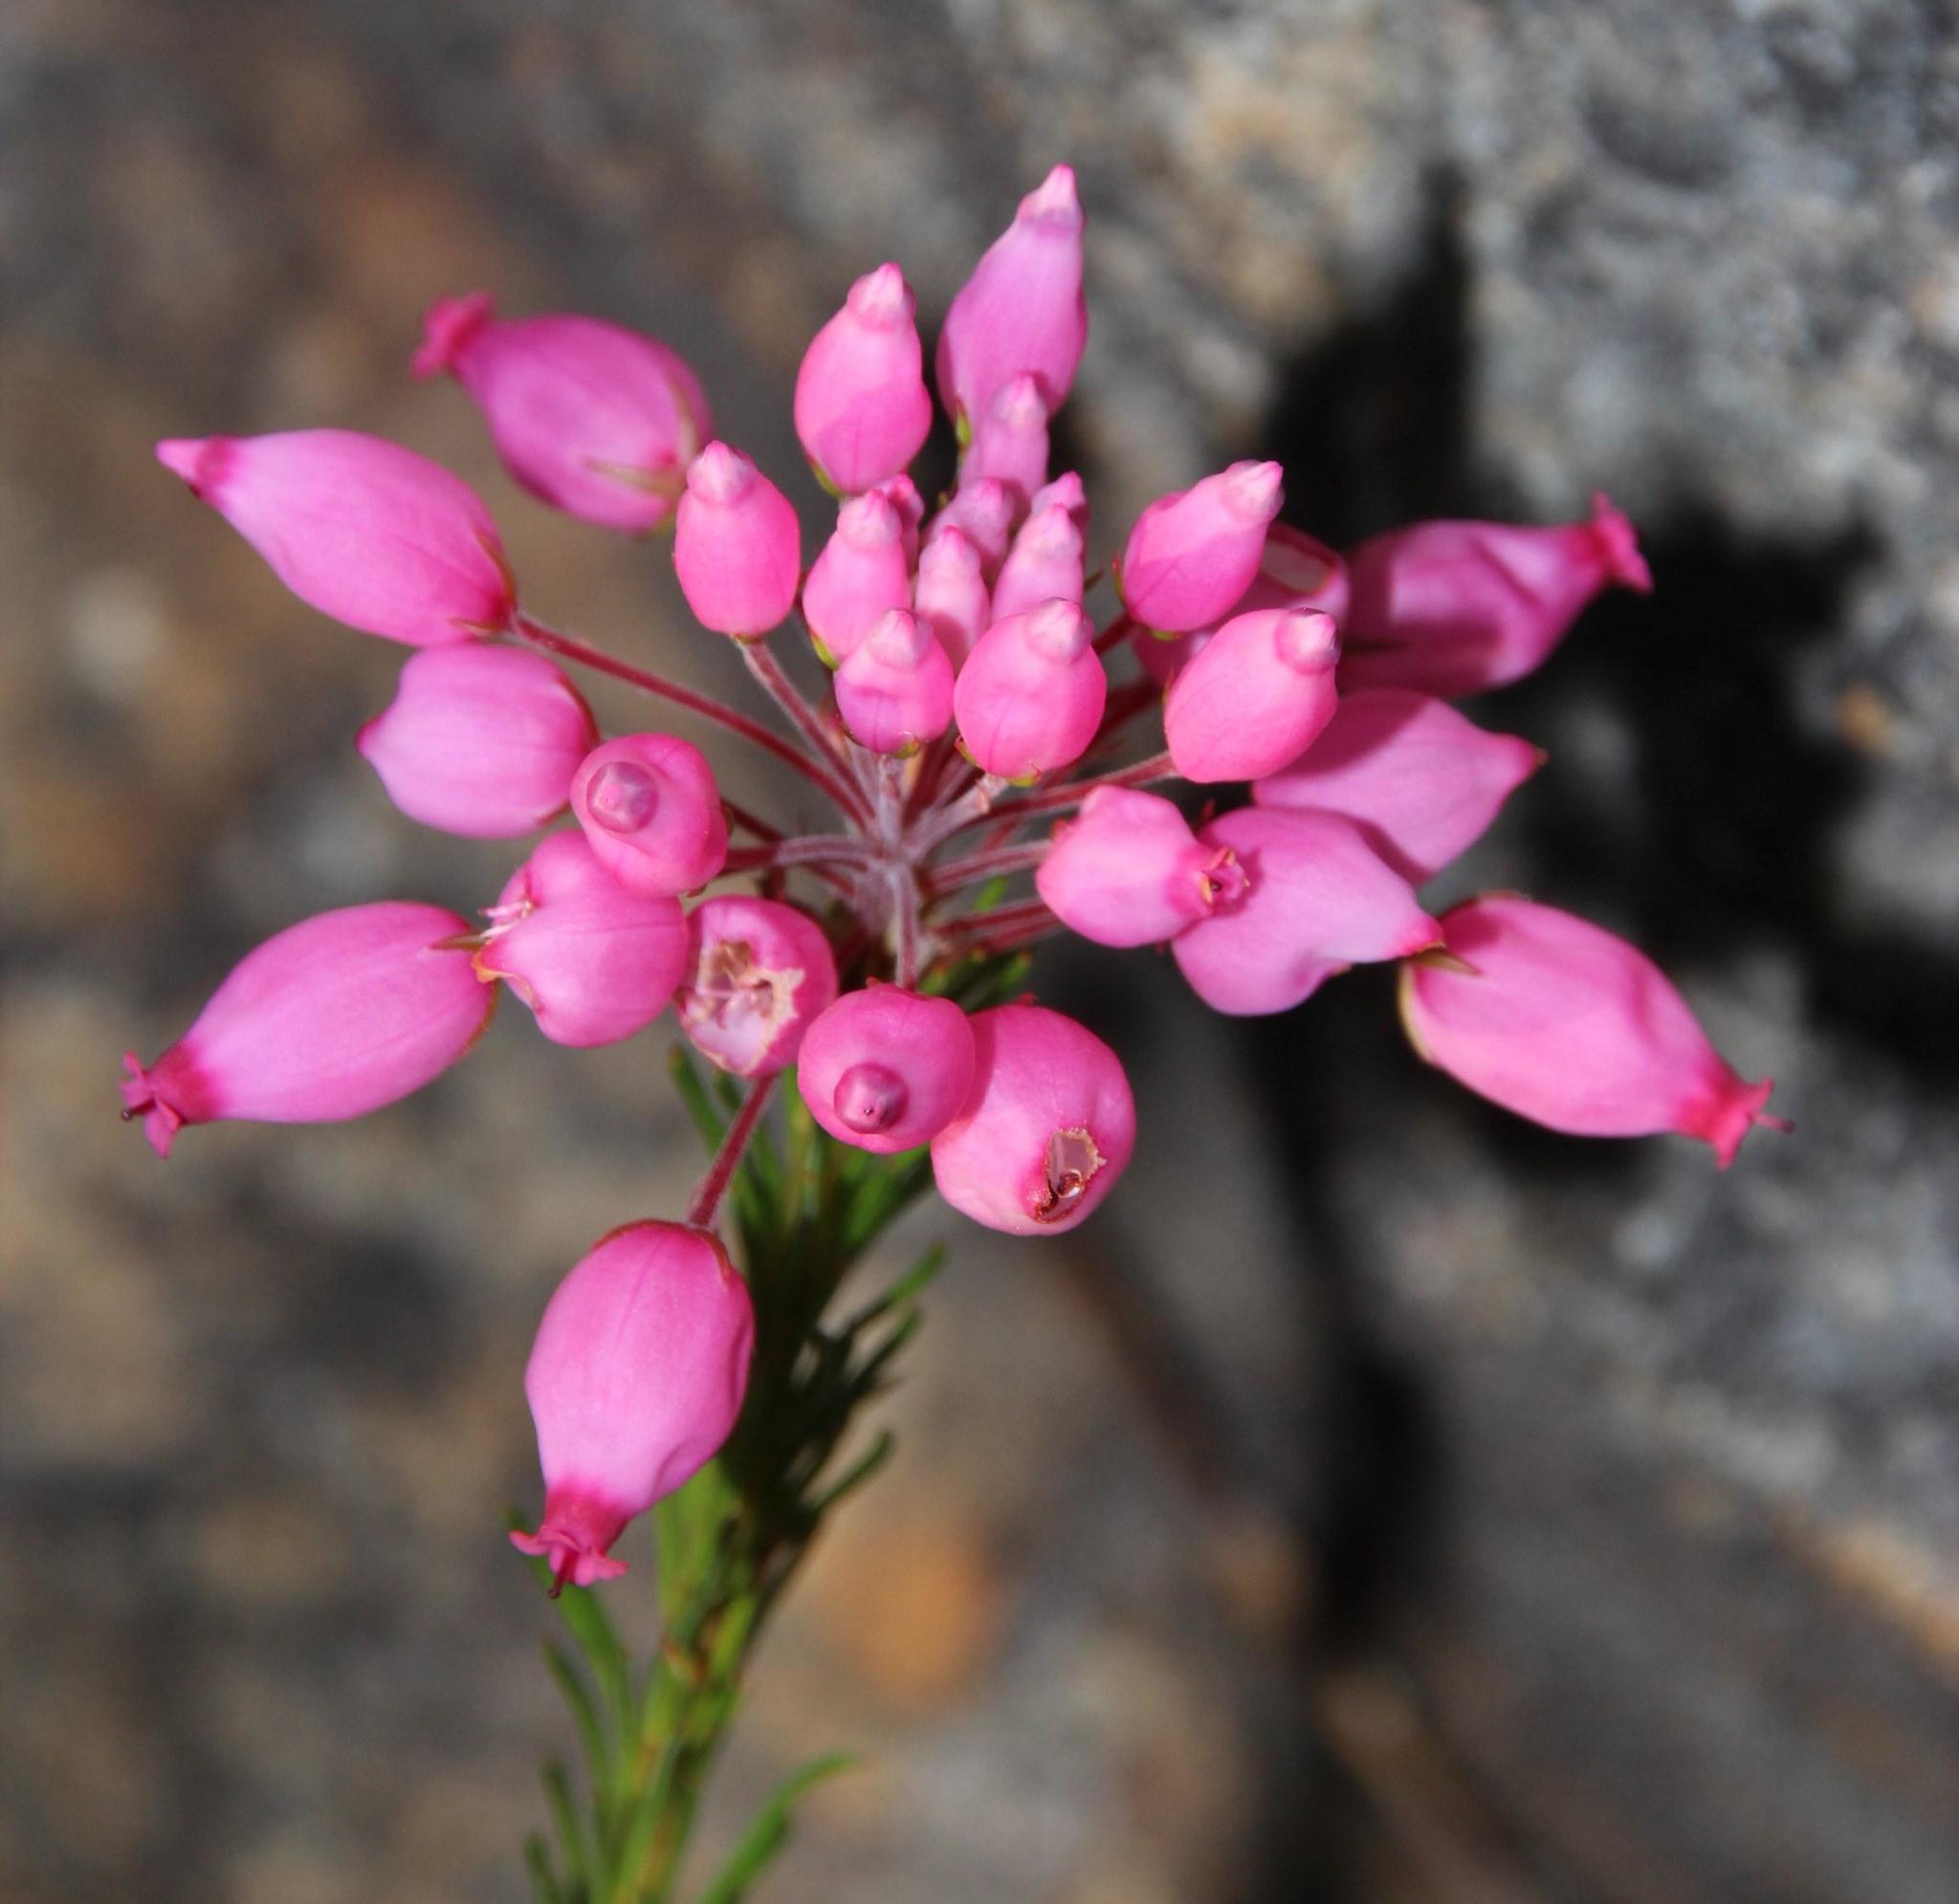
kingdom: Plantae
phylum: Tracheophyta
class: Magnoliopsida
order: Ericales
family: Ericaceae
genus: Erica
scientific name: Erica inflata
